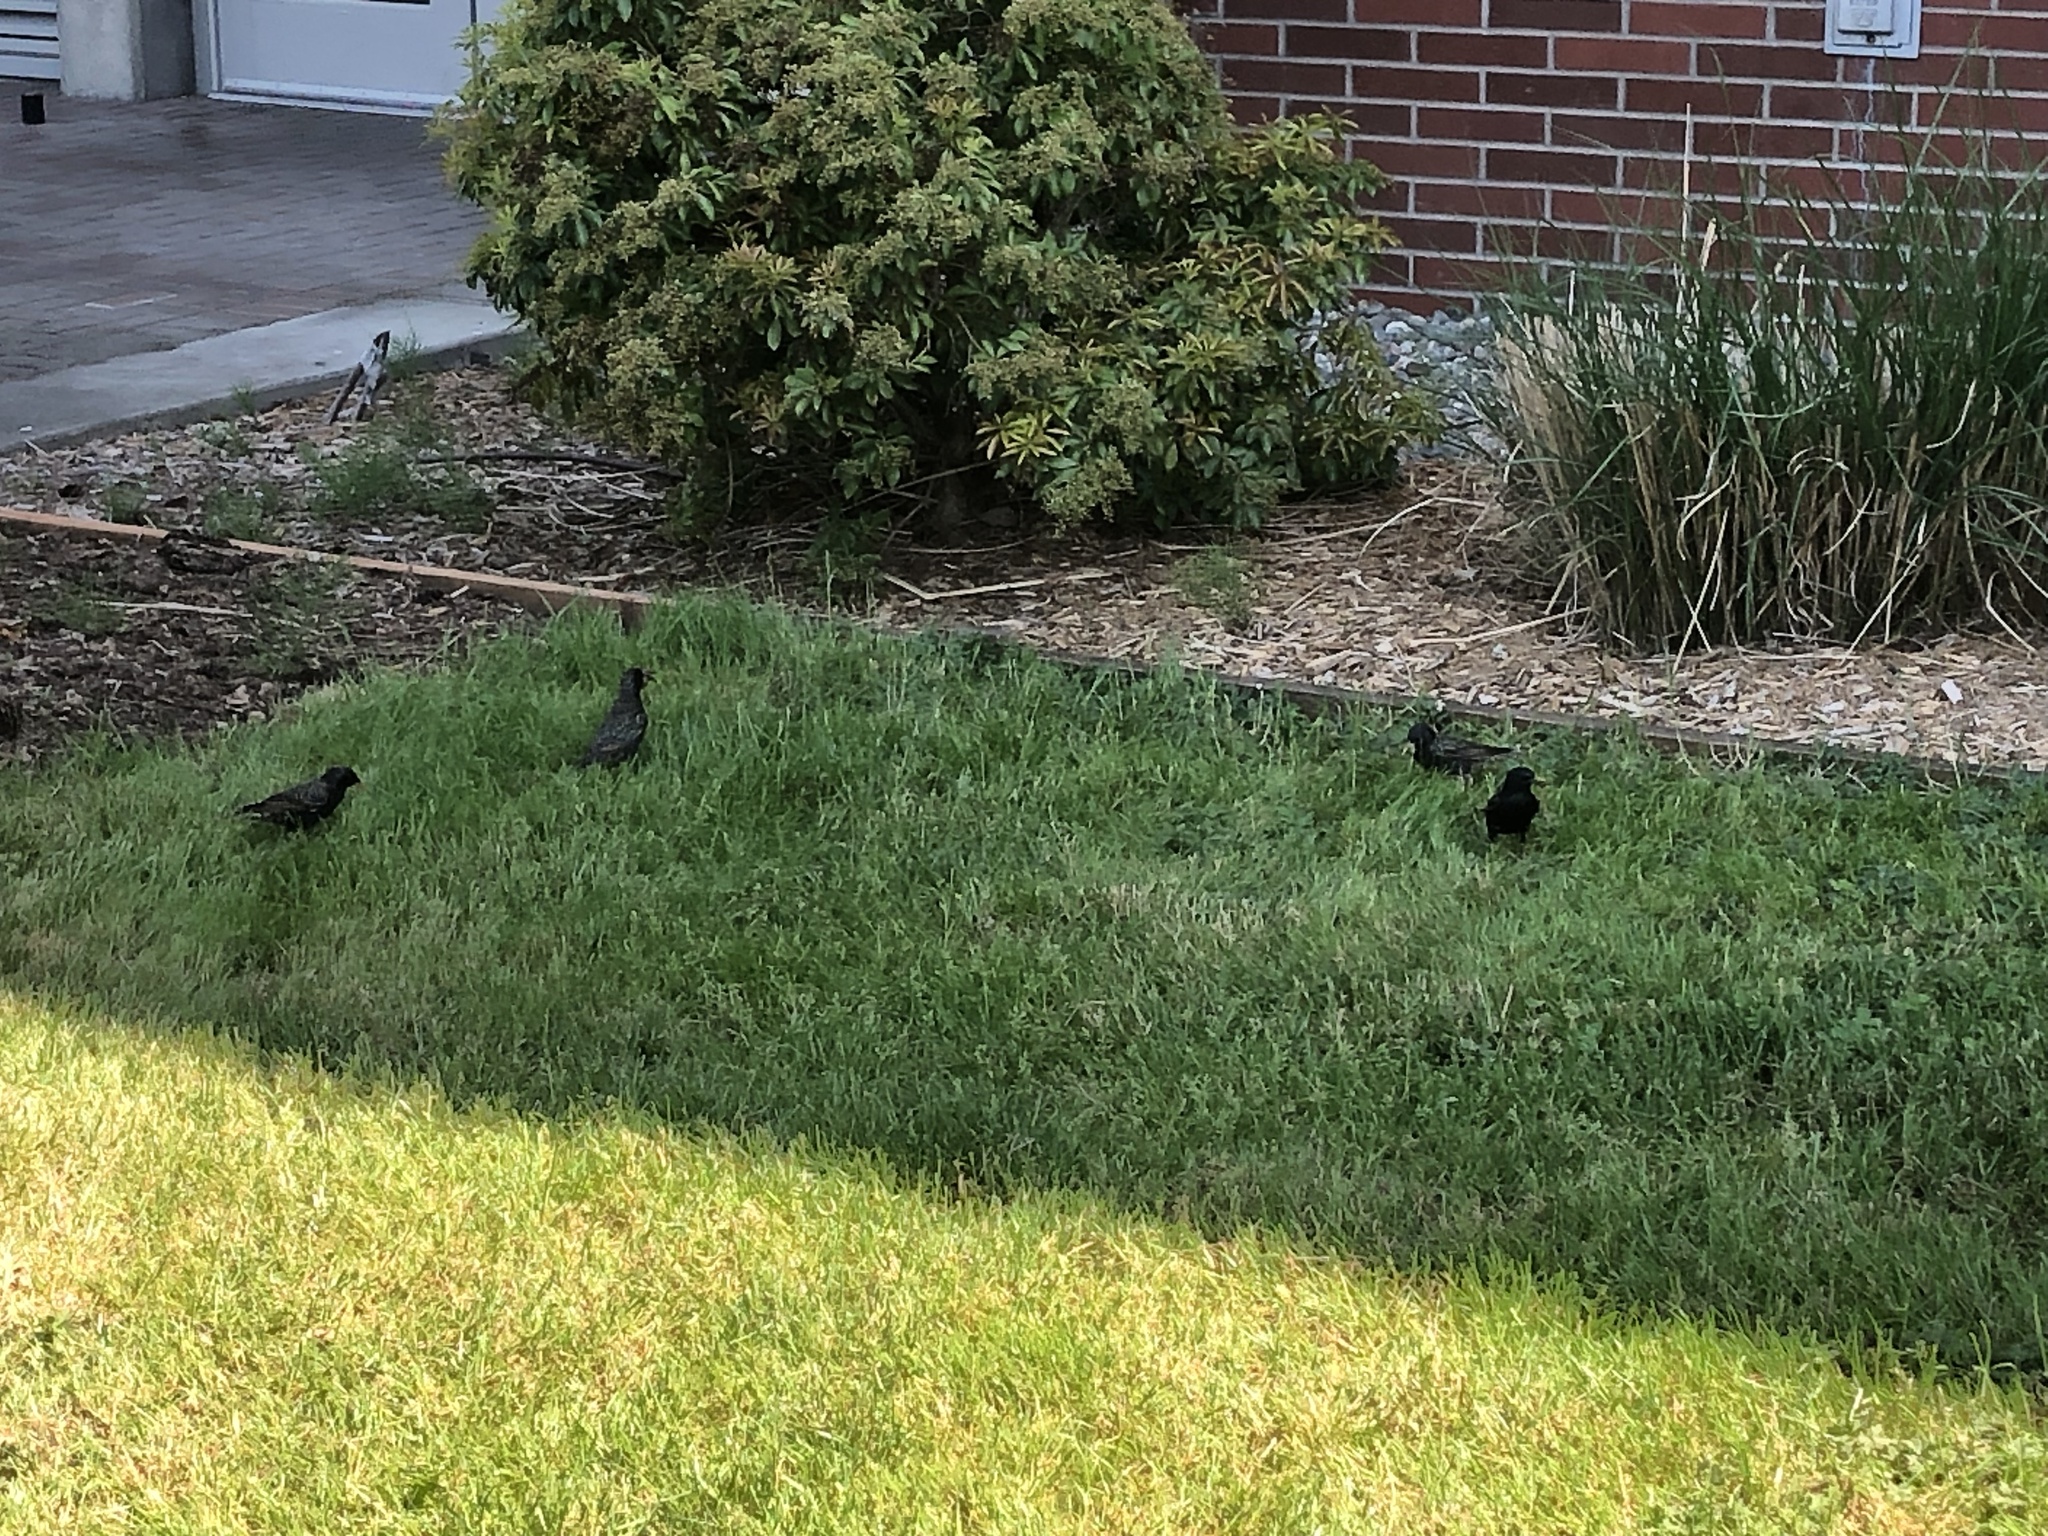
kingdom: Animalia
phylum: Chordata
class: Aves
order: Passeriformes
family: Sturnidae
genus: Sturnus
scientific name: Sturnus vulgaris
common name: Common starling
